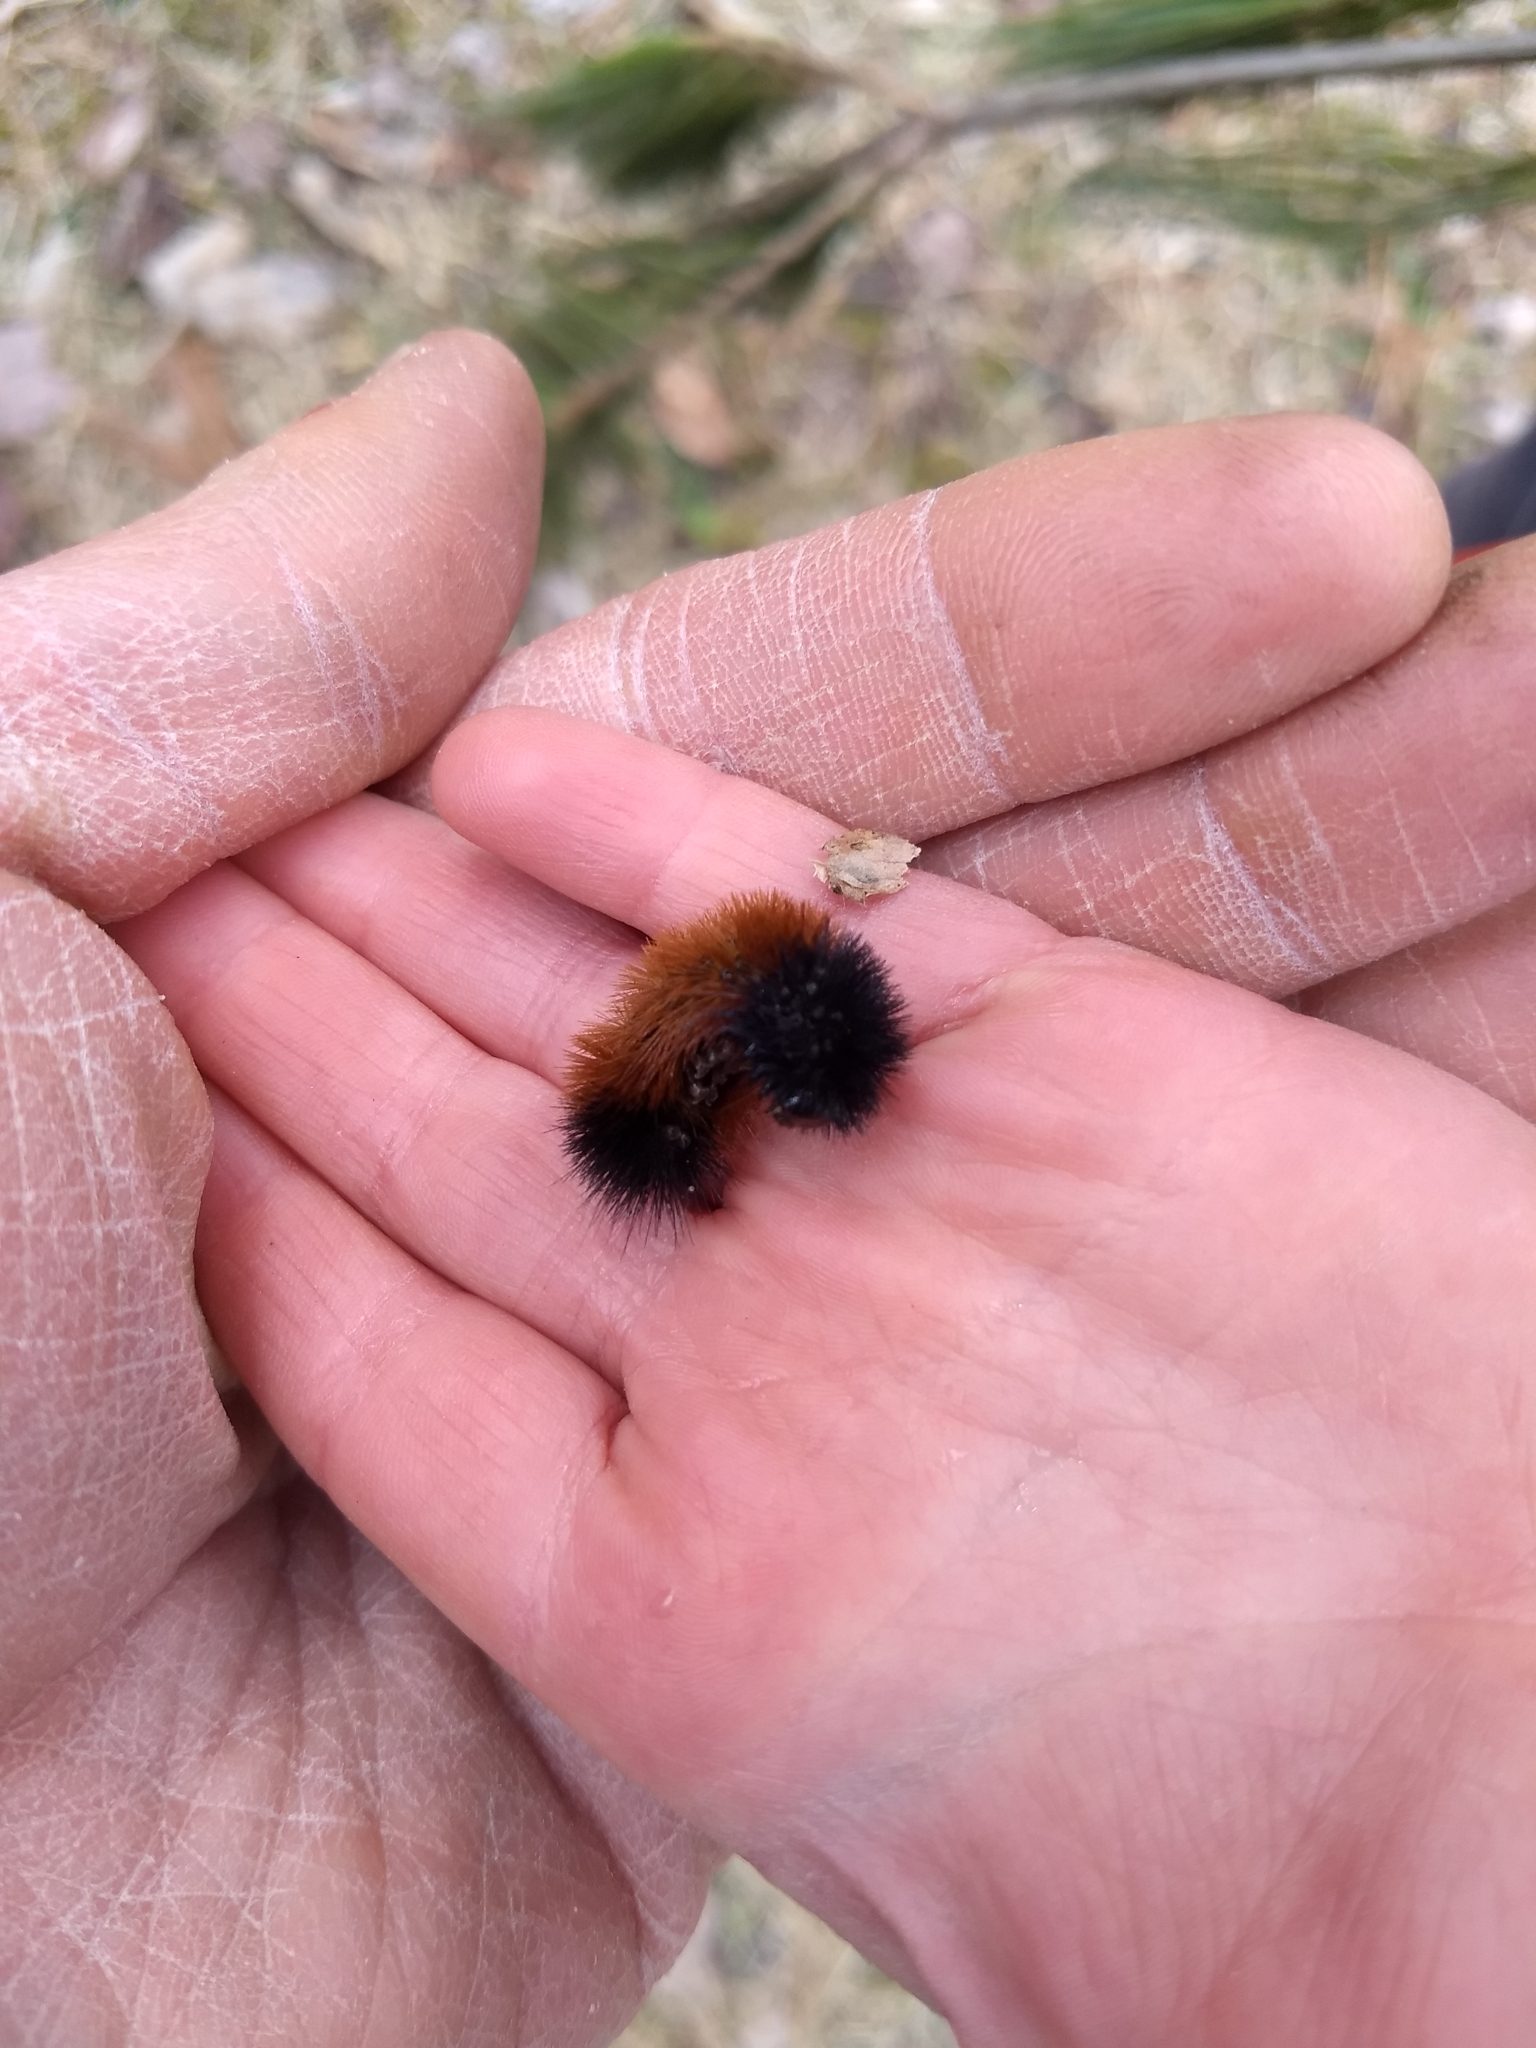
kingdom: Animalia
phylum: Arthropoda
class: Insecta
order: Lepidoptera
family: Erebidae
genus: Pyrrharctia
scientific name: Pyrrharctia isabella
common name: Isabella tiger moth
